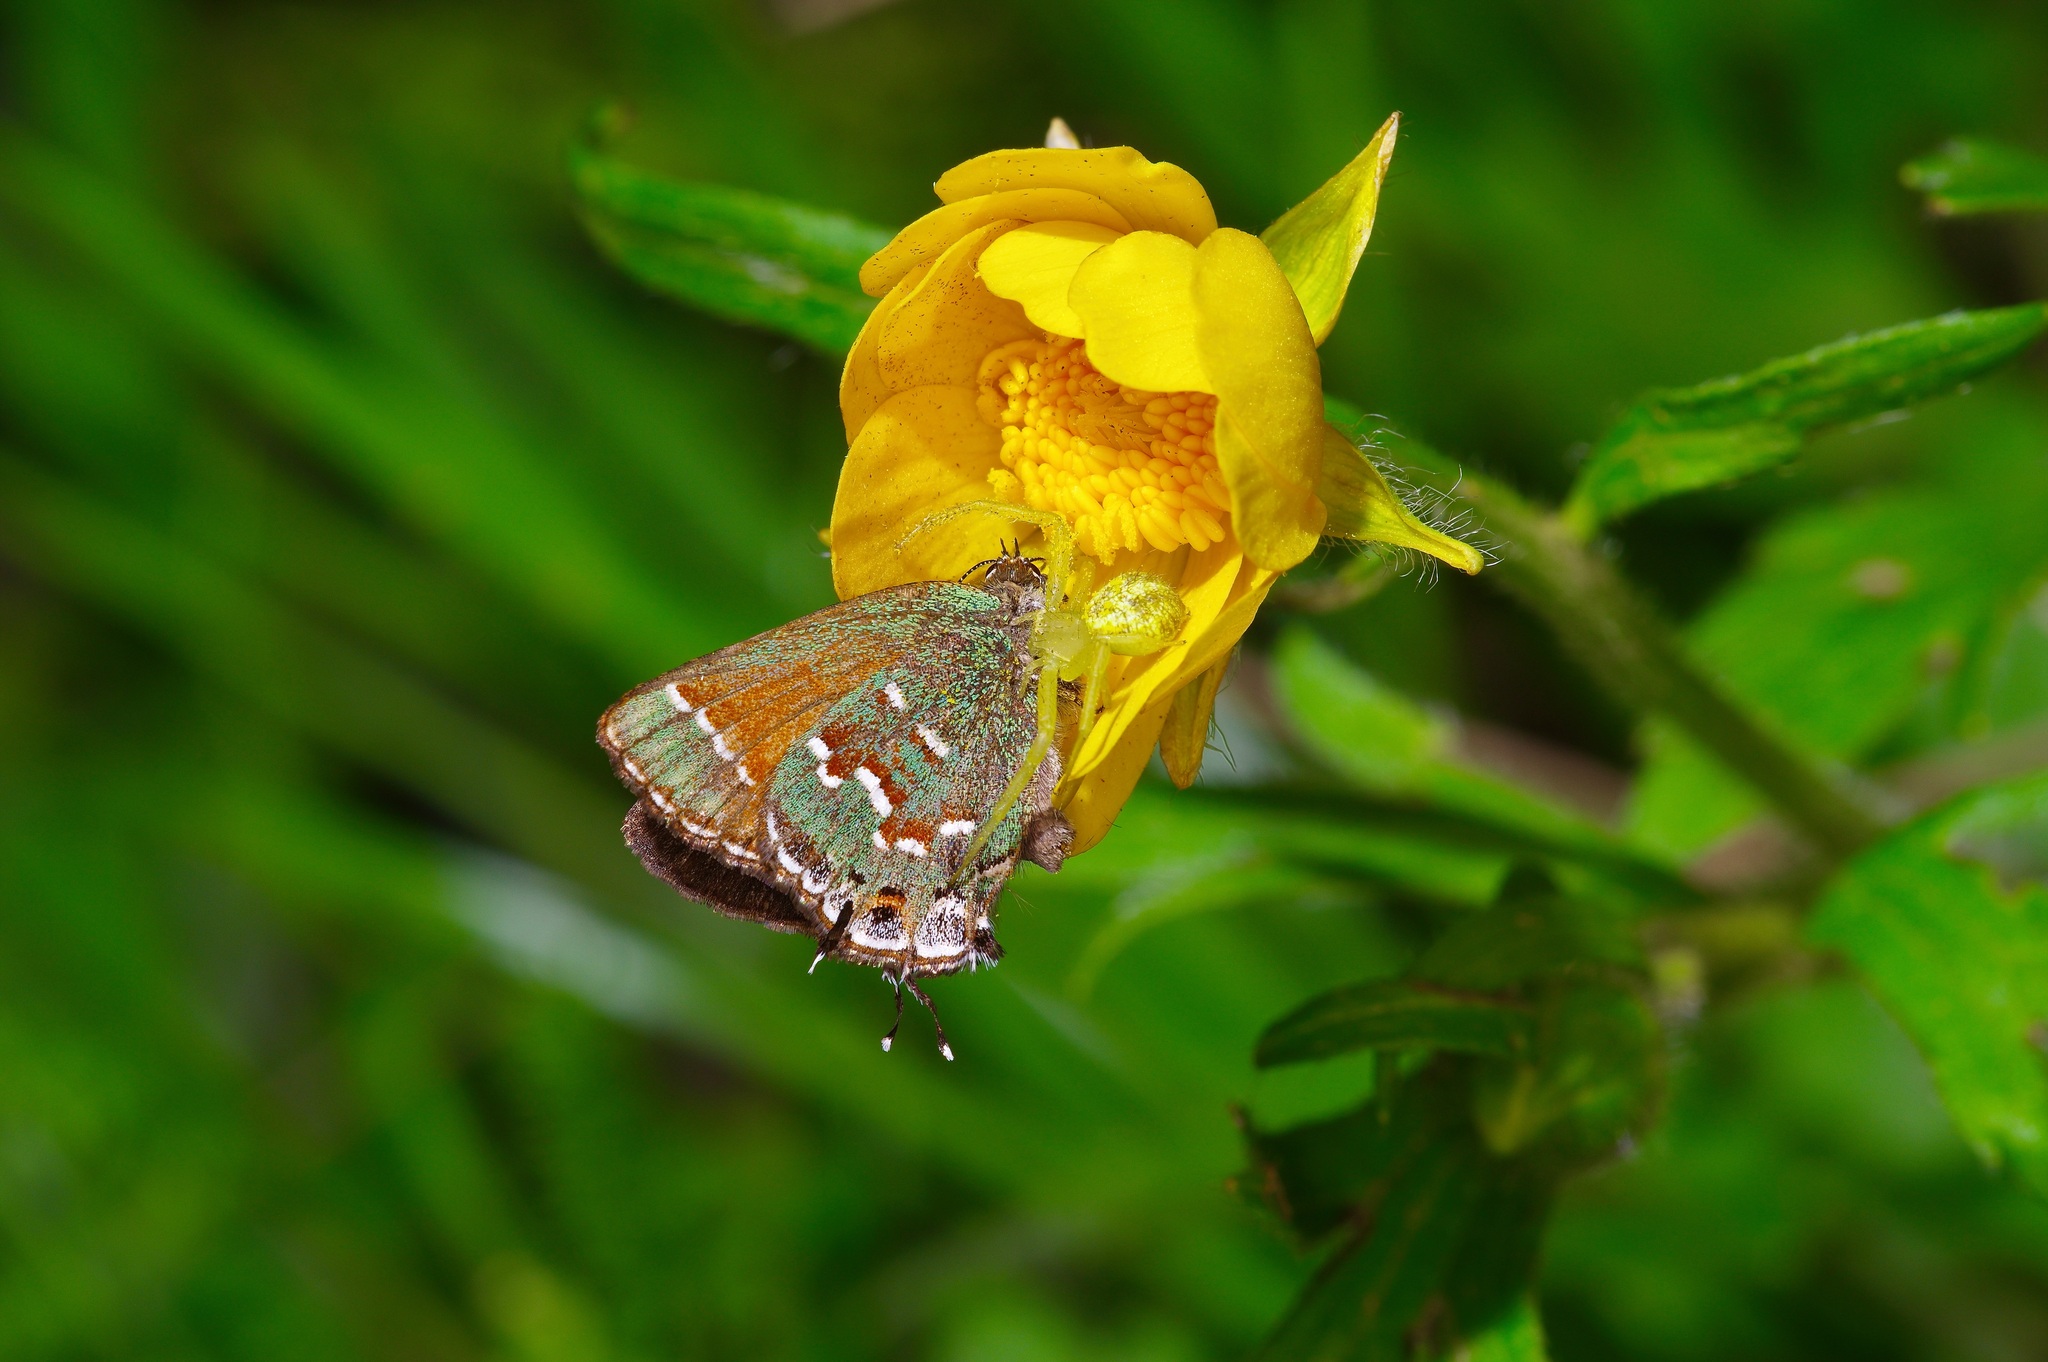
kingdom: Animalia
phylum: Arthropoda
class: Insecta
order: Lepidoptera
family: Lycaenidae
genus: Mitoura
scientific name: Mitoura gryneus
